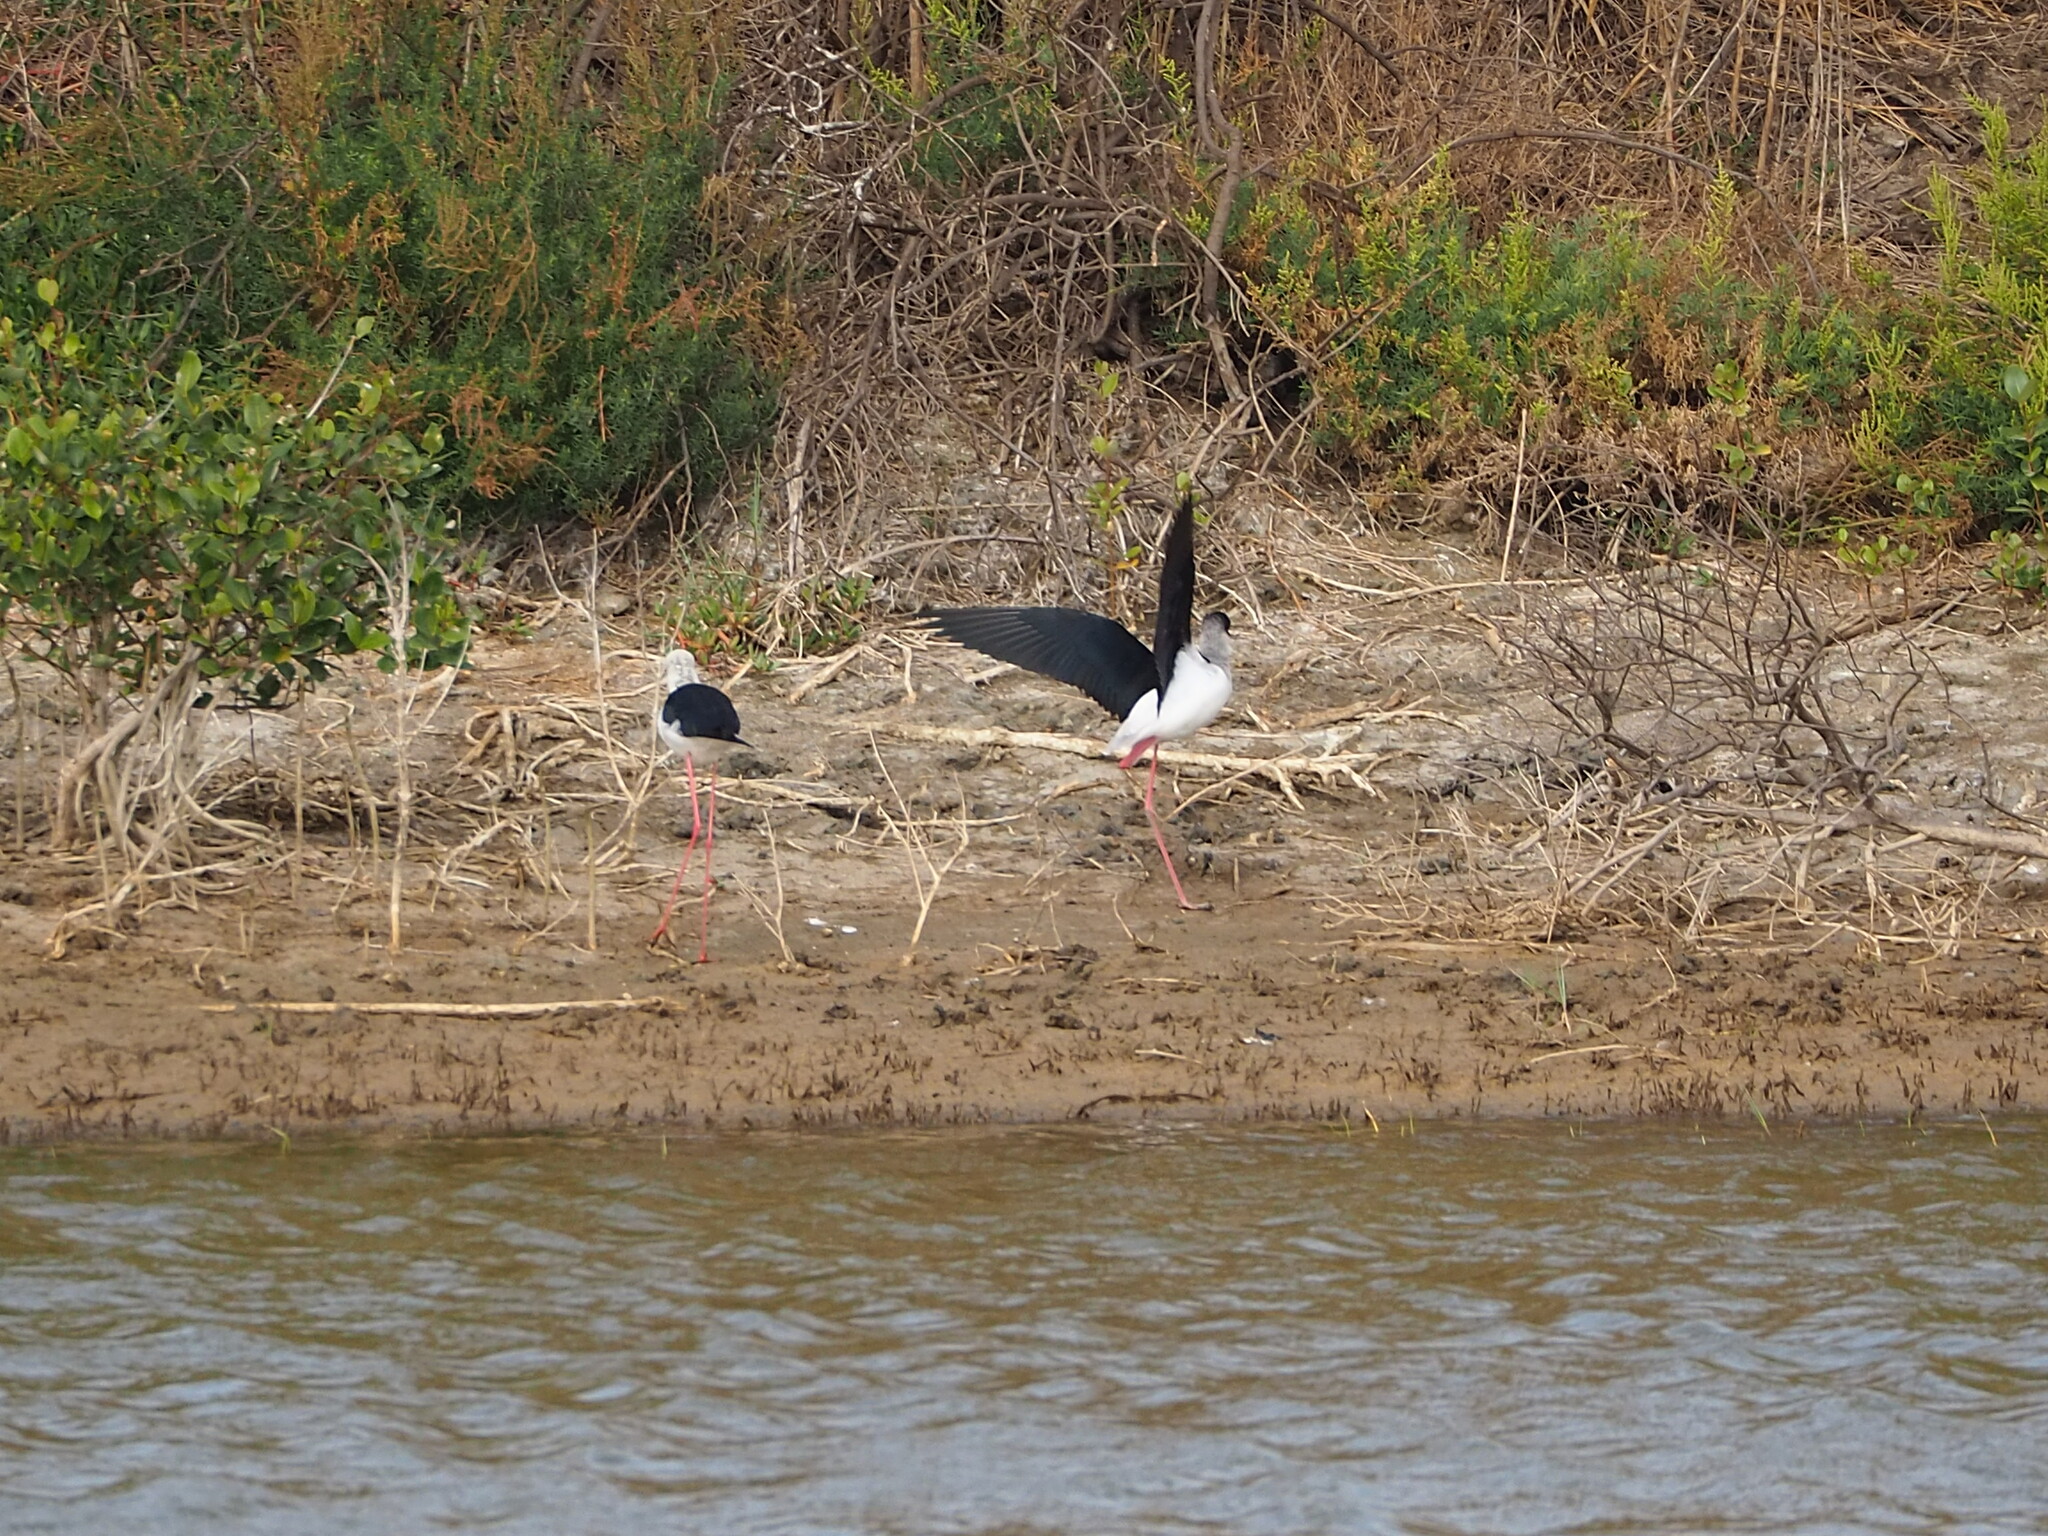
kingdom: Animalia
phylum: Chordata
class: Aves
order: Charadriiformes
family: Recurvirostridae
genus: Himantopus
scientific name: Himantopus himantopus
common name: Black-winged stilt
